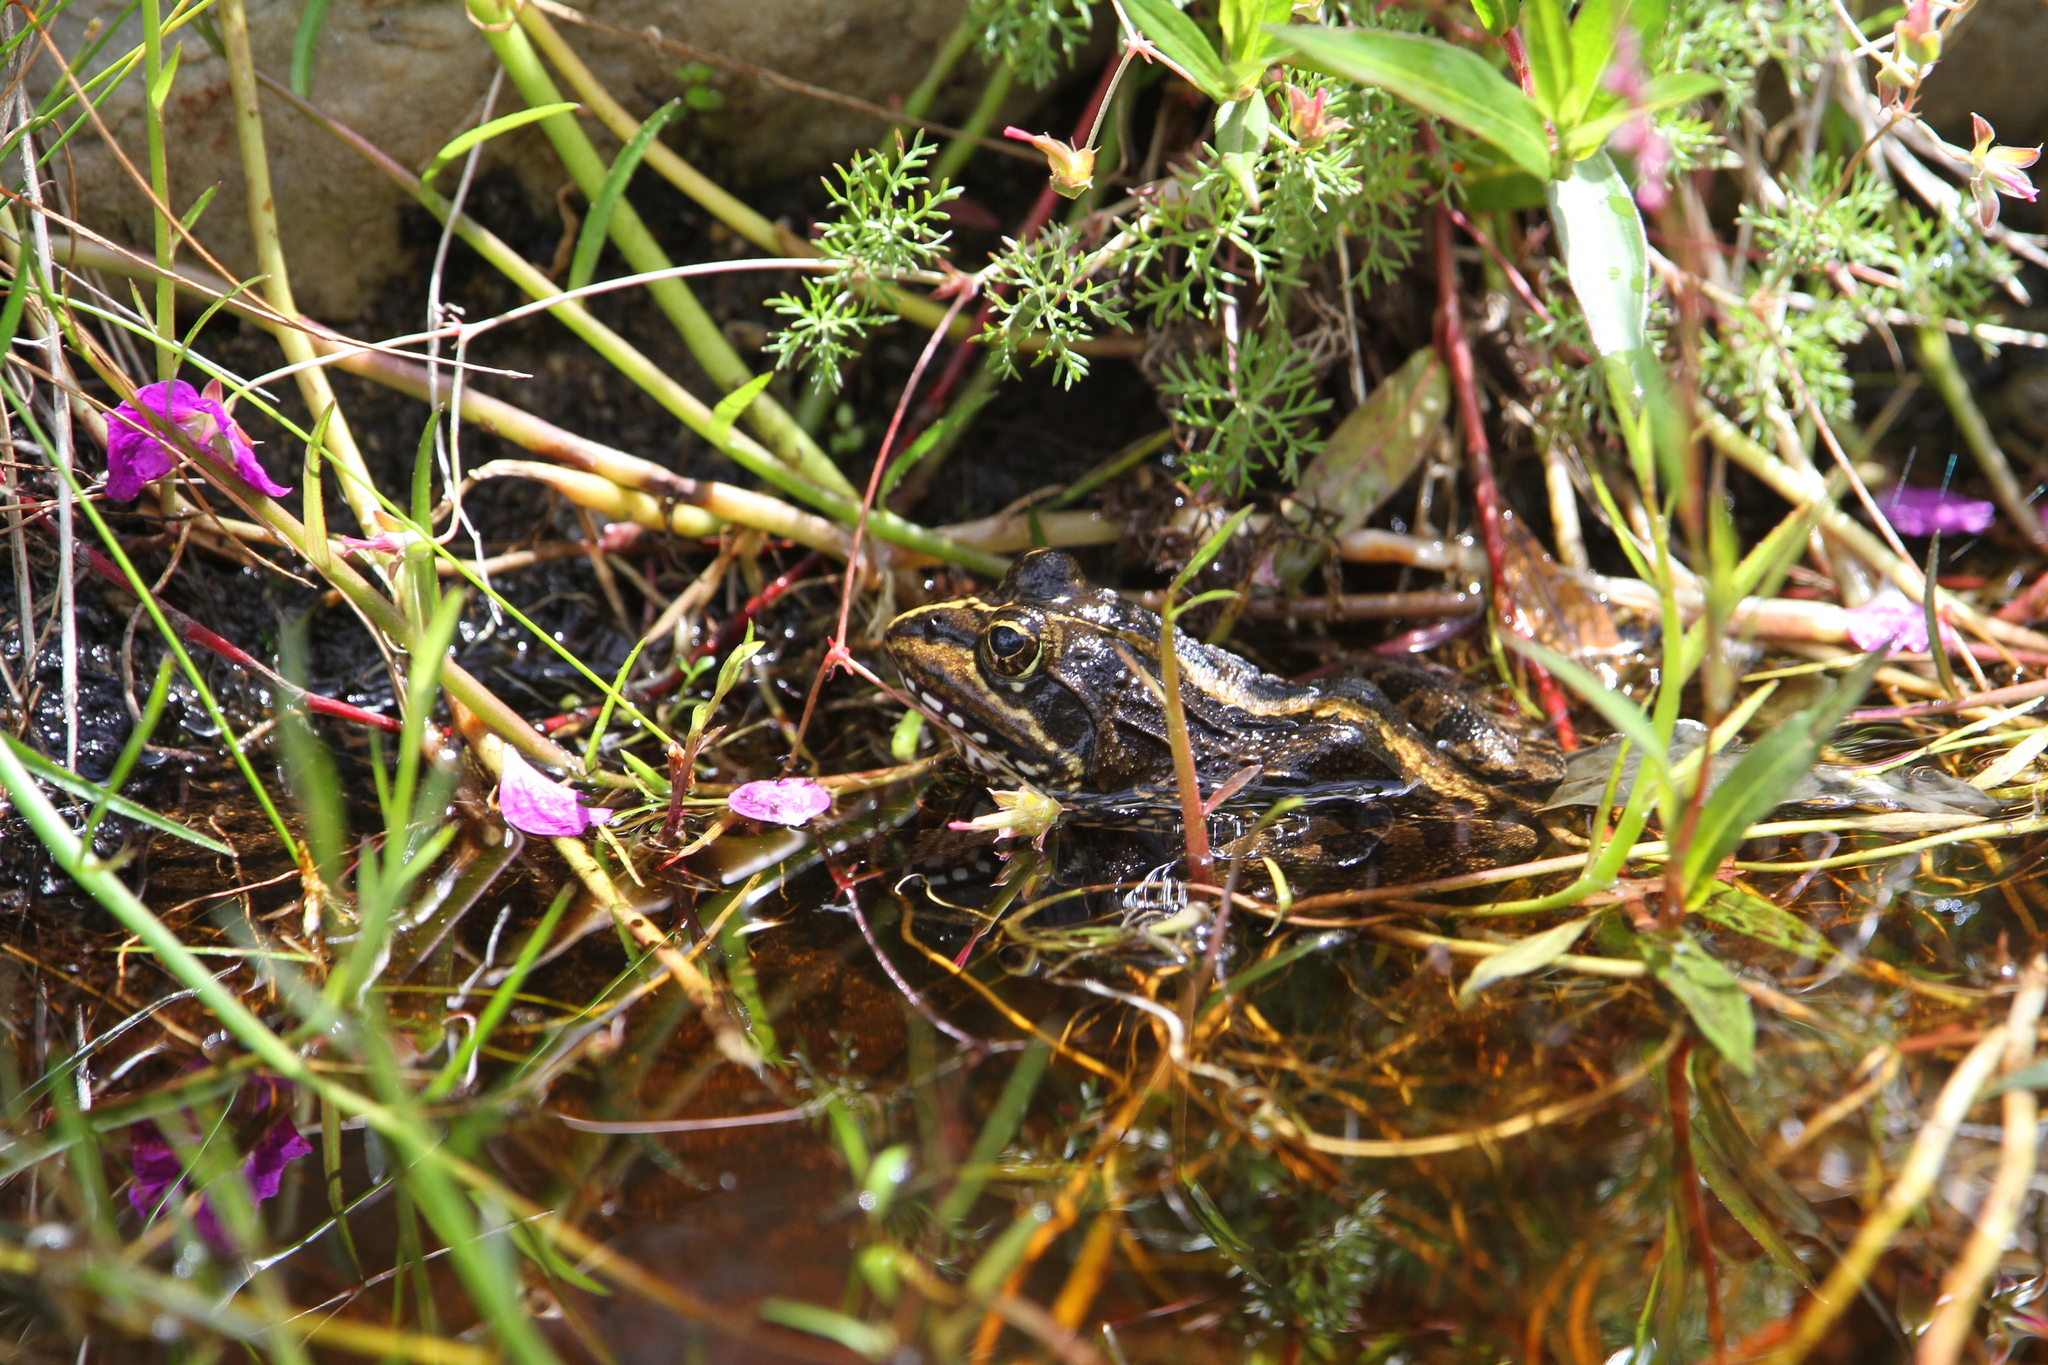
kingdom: Animalia
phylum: Chordata
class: Amphibia
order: Anura
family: Pyxicephalidae
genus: Amietia
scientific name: Amietia fuscigula
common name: Cape rana
